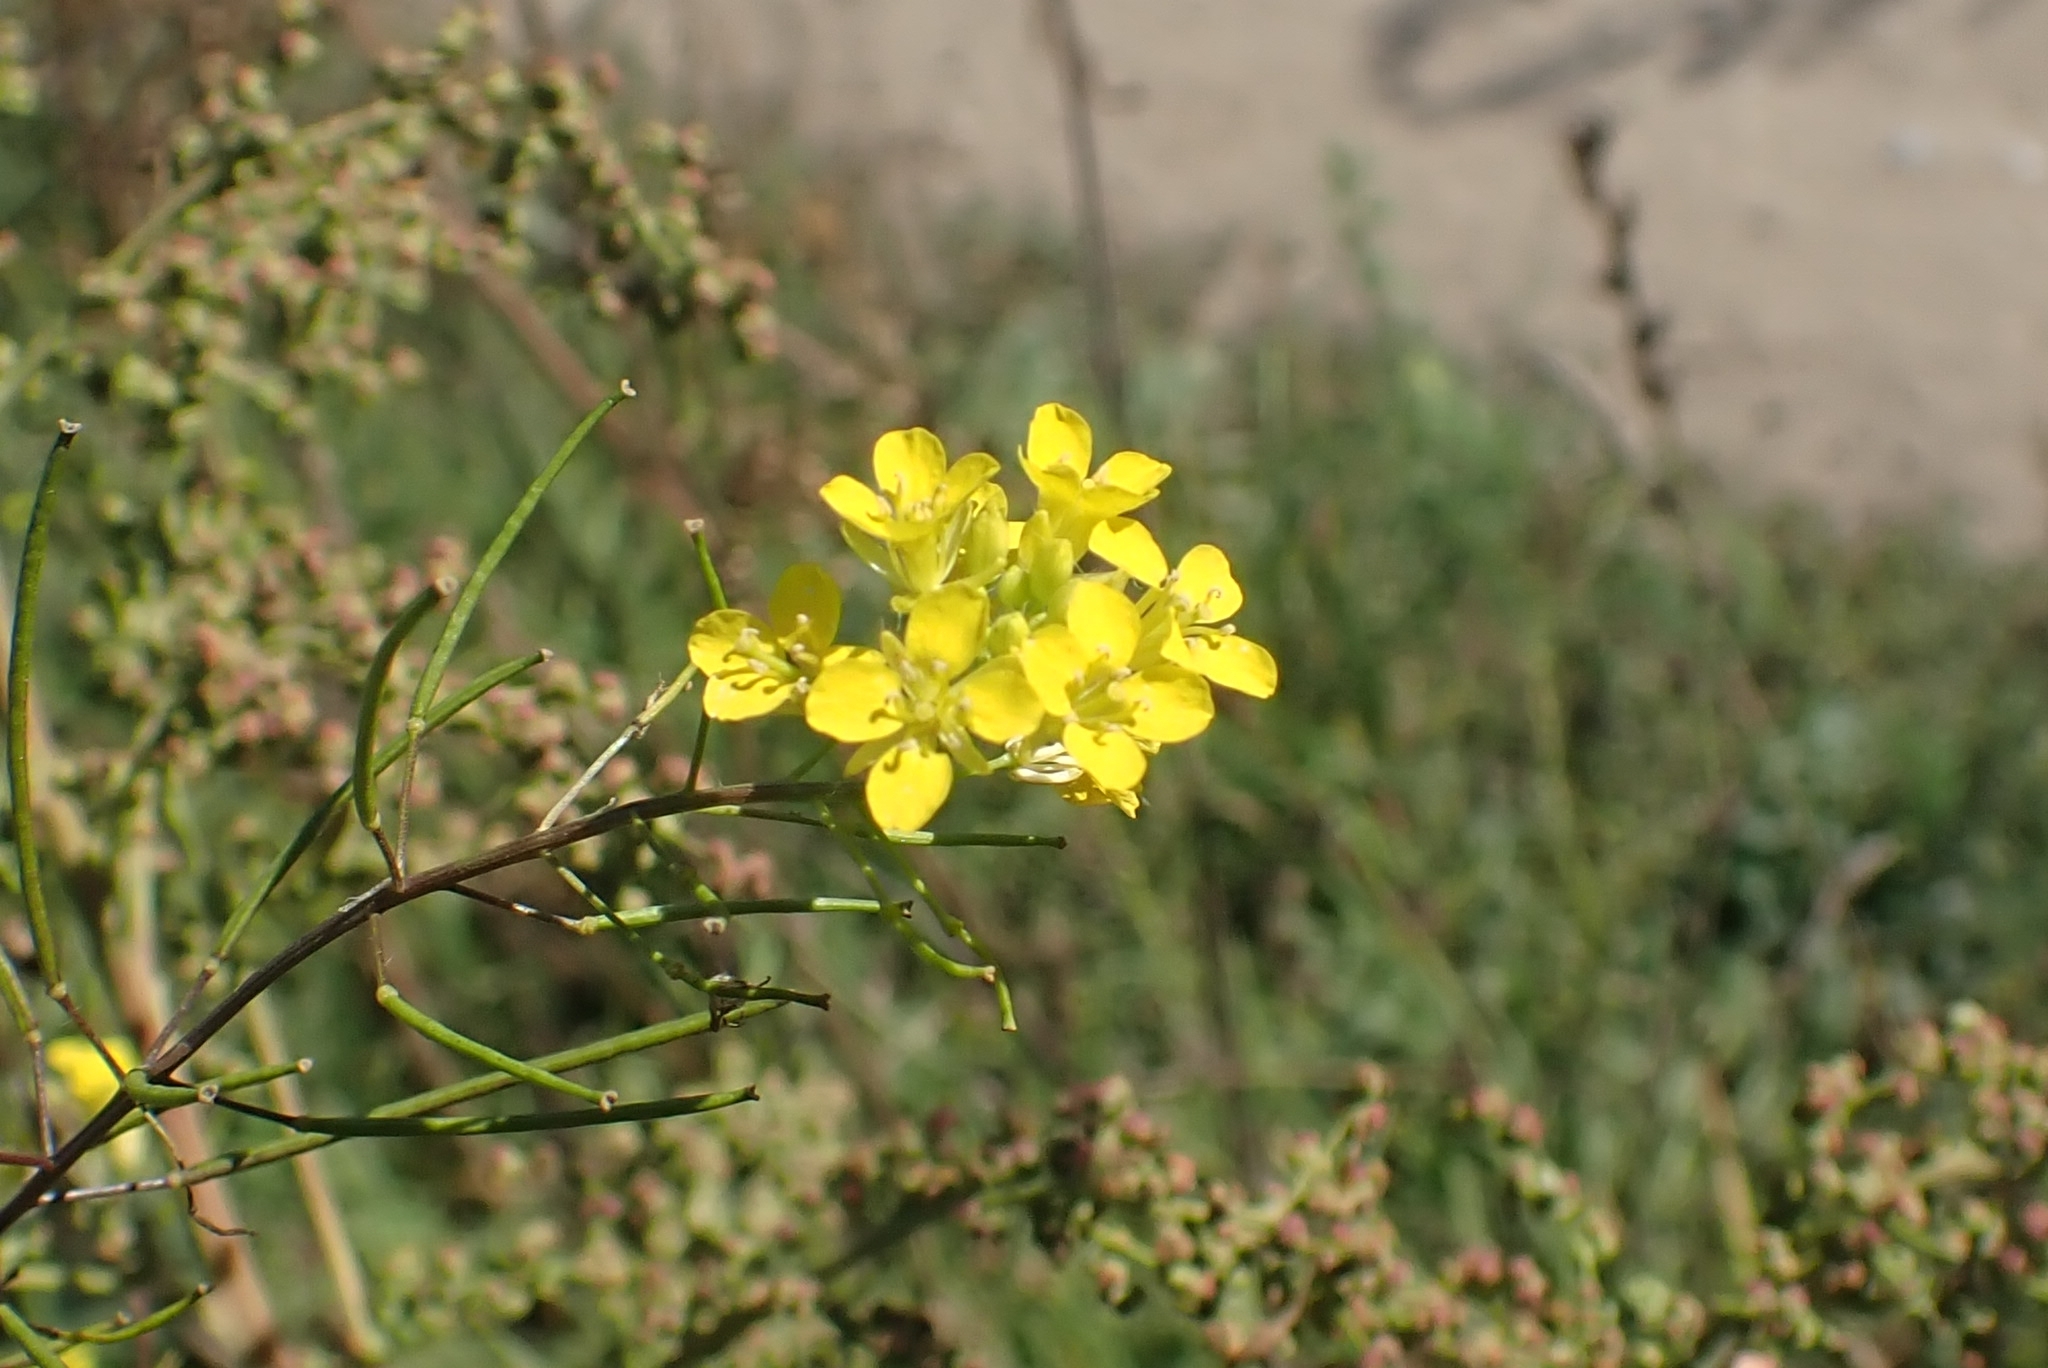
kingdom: Plantae
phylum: Tracheophyta
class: Magnoliopsida
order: Brassicales
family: Brassicaceae
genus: Sisymbrium
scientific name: Sisymbrium loeselii
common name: False london-rocket
